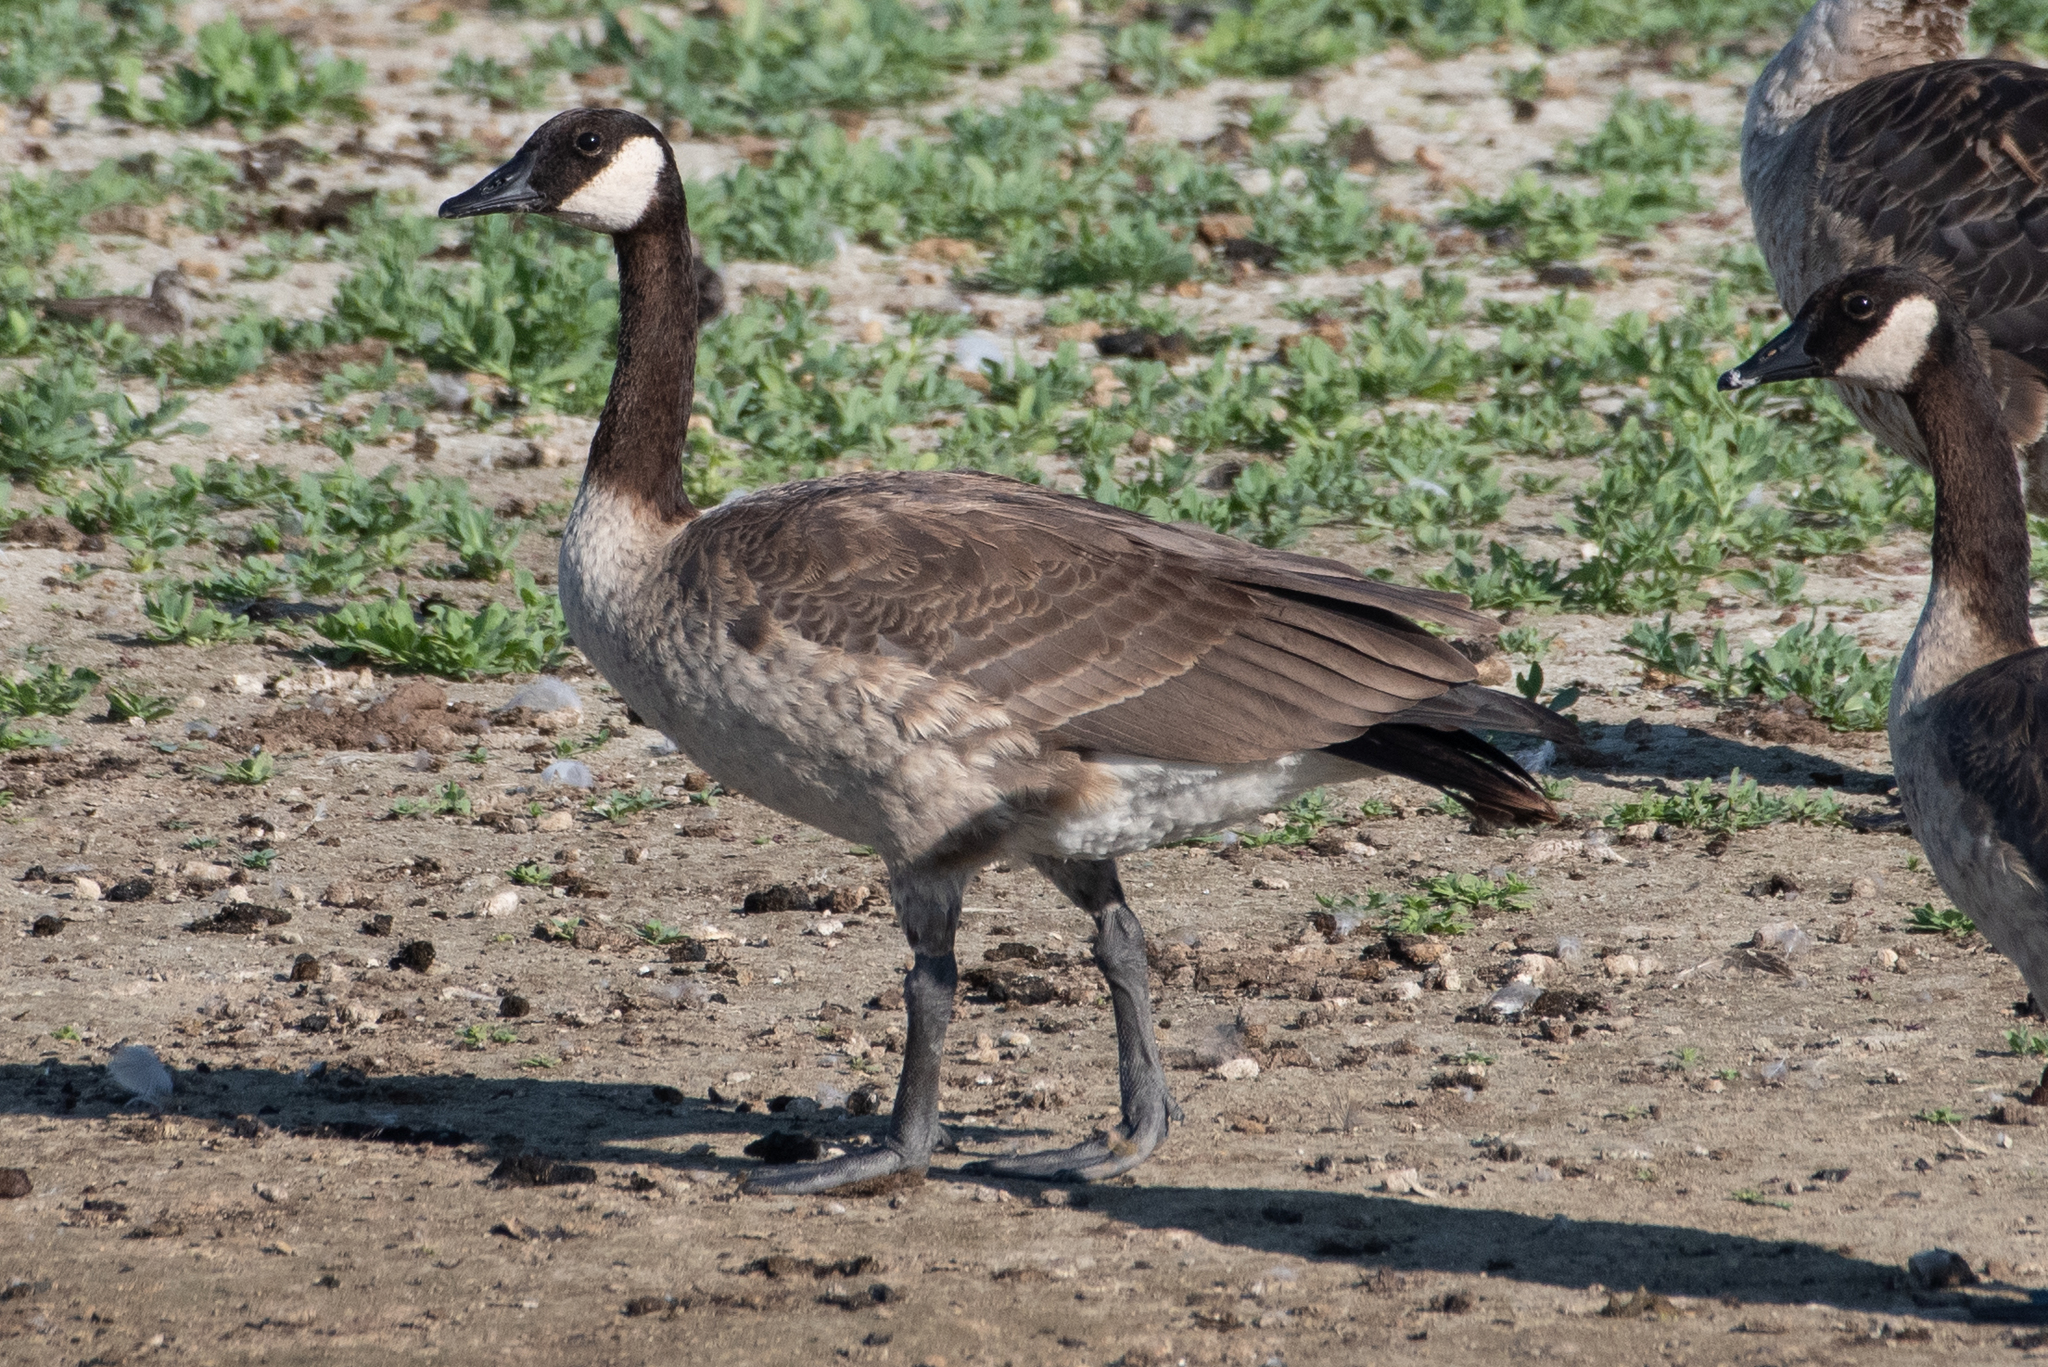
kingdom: Animalia
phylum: Chordata
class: Aves
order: Anseriformes
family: Anatidae
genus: Branta
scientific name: Branta canadensis
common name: Canada goose
